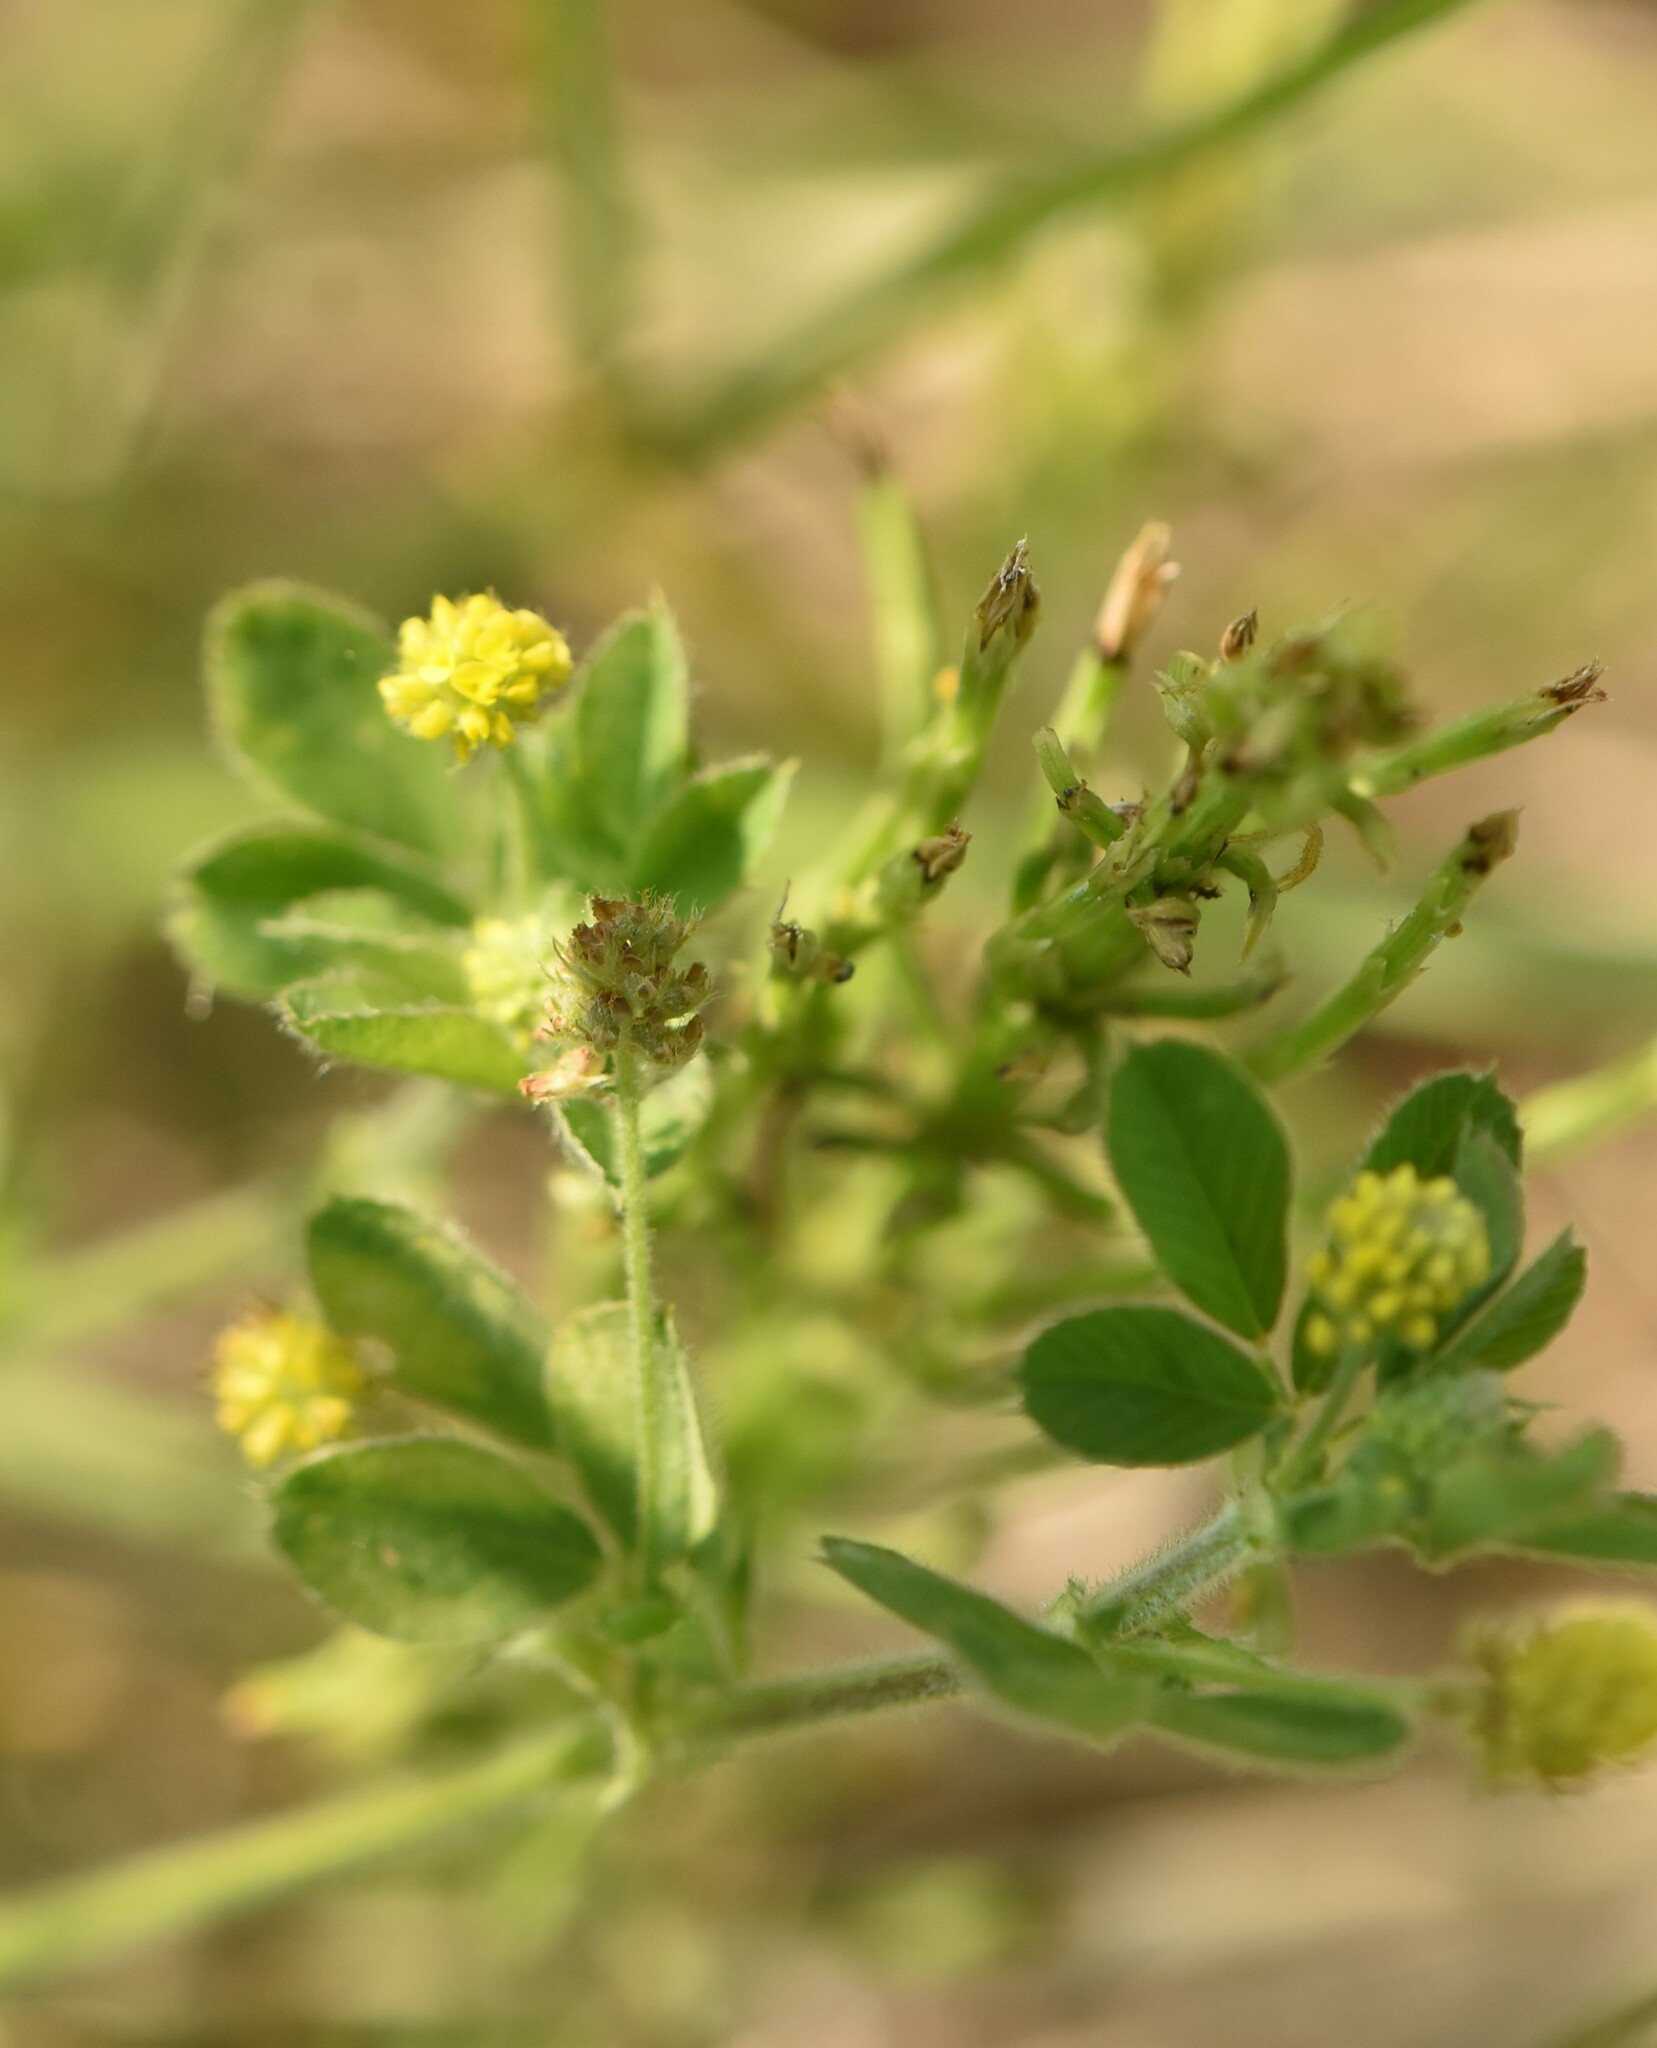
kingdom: Plantae
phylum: Tracheophyta
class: Magnoliopsida
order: Fabales
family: Fabaceae
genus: Medicago
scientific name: Medicago lupulina
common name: Black medick
